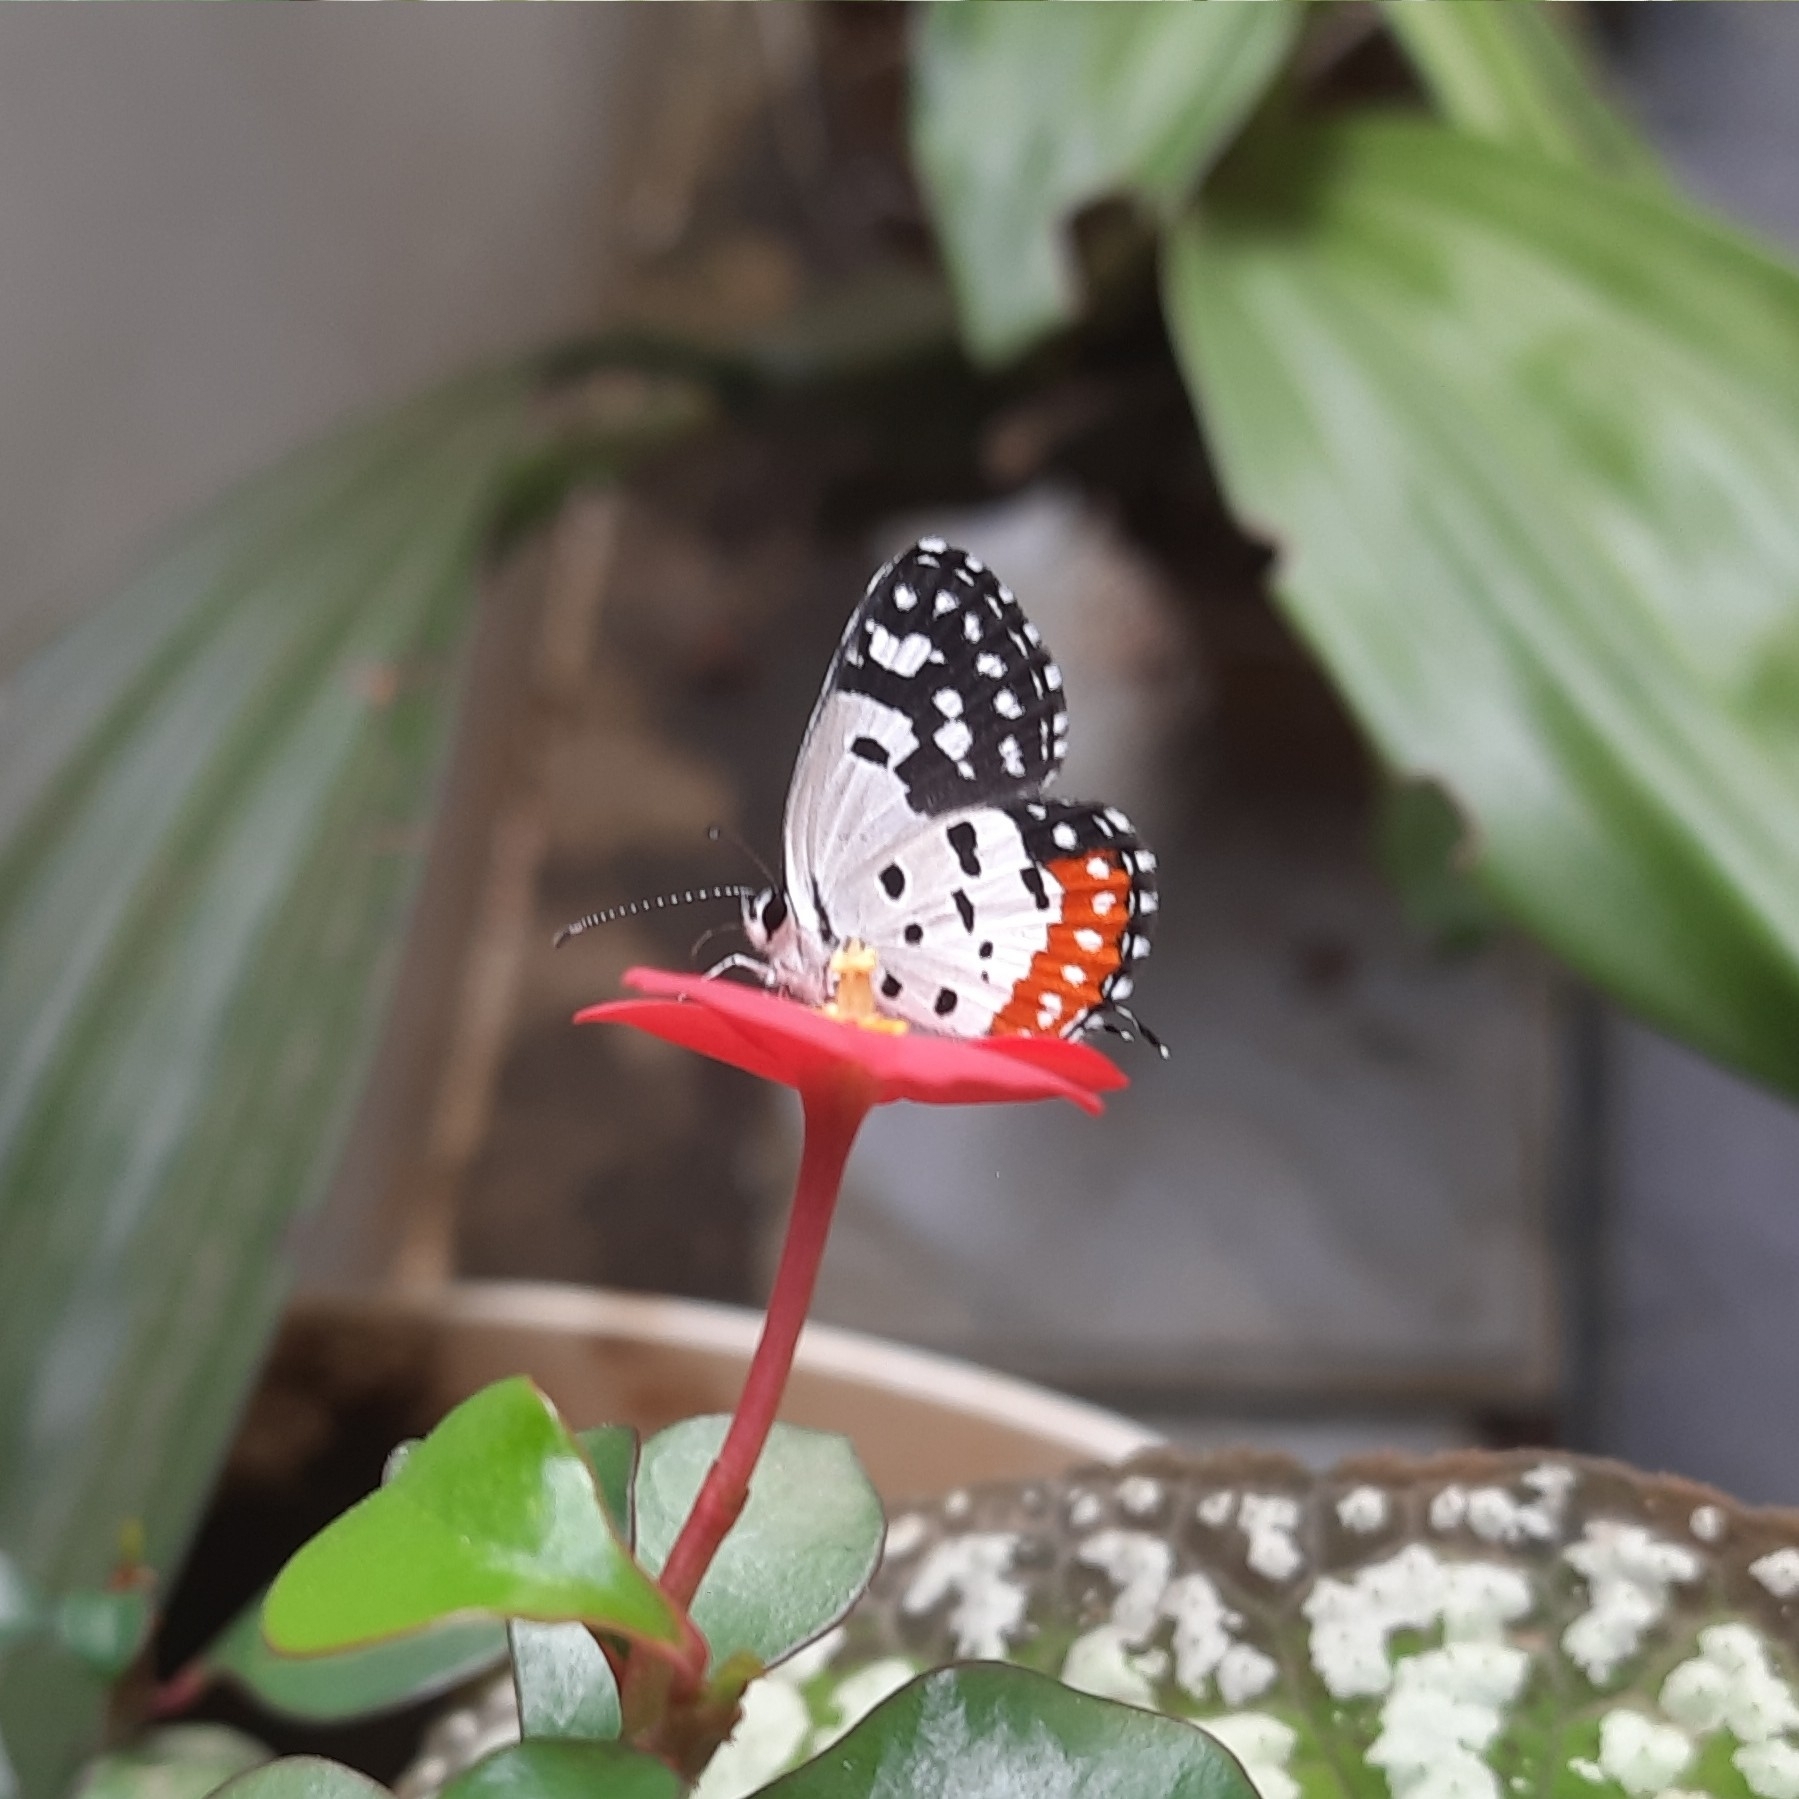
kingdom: Animalia
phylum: Arthropoda
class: Insecta
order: Lepidoptera
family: Lycaenidae
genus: Talicada
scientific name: Talicada nyseus
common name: Red pierrot
